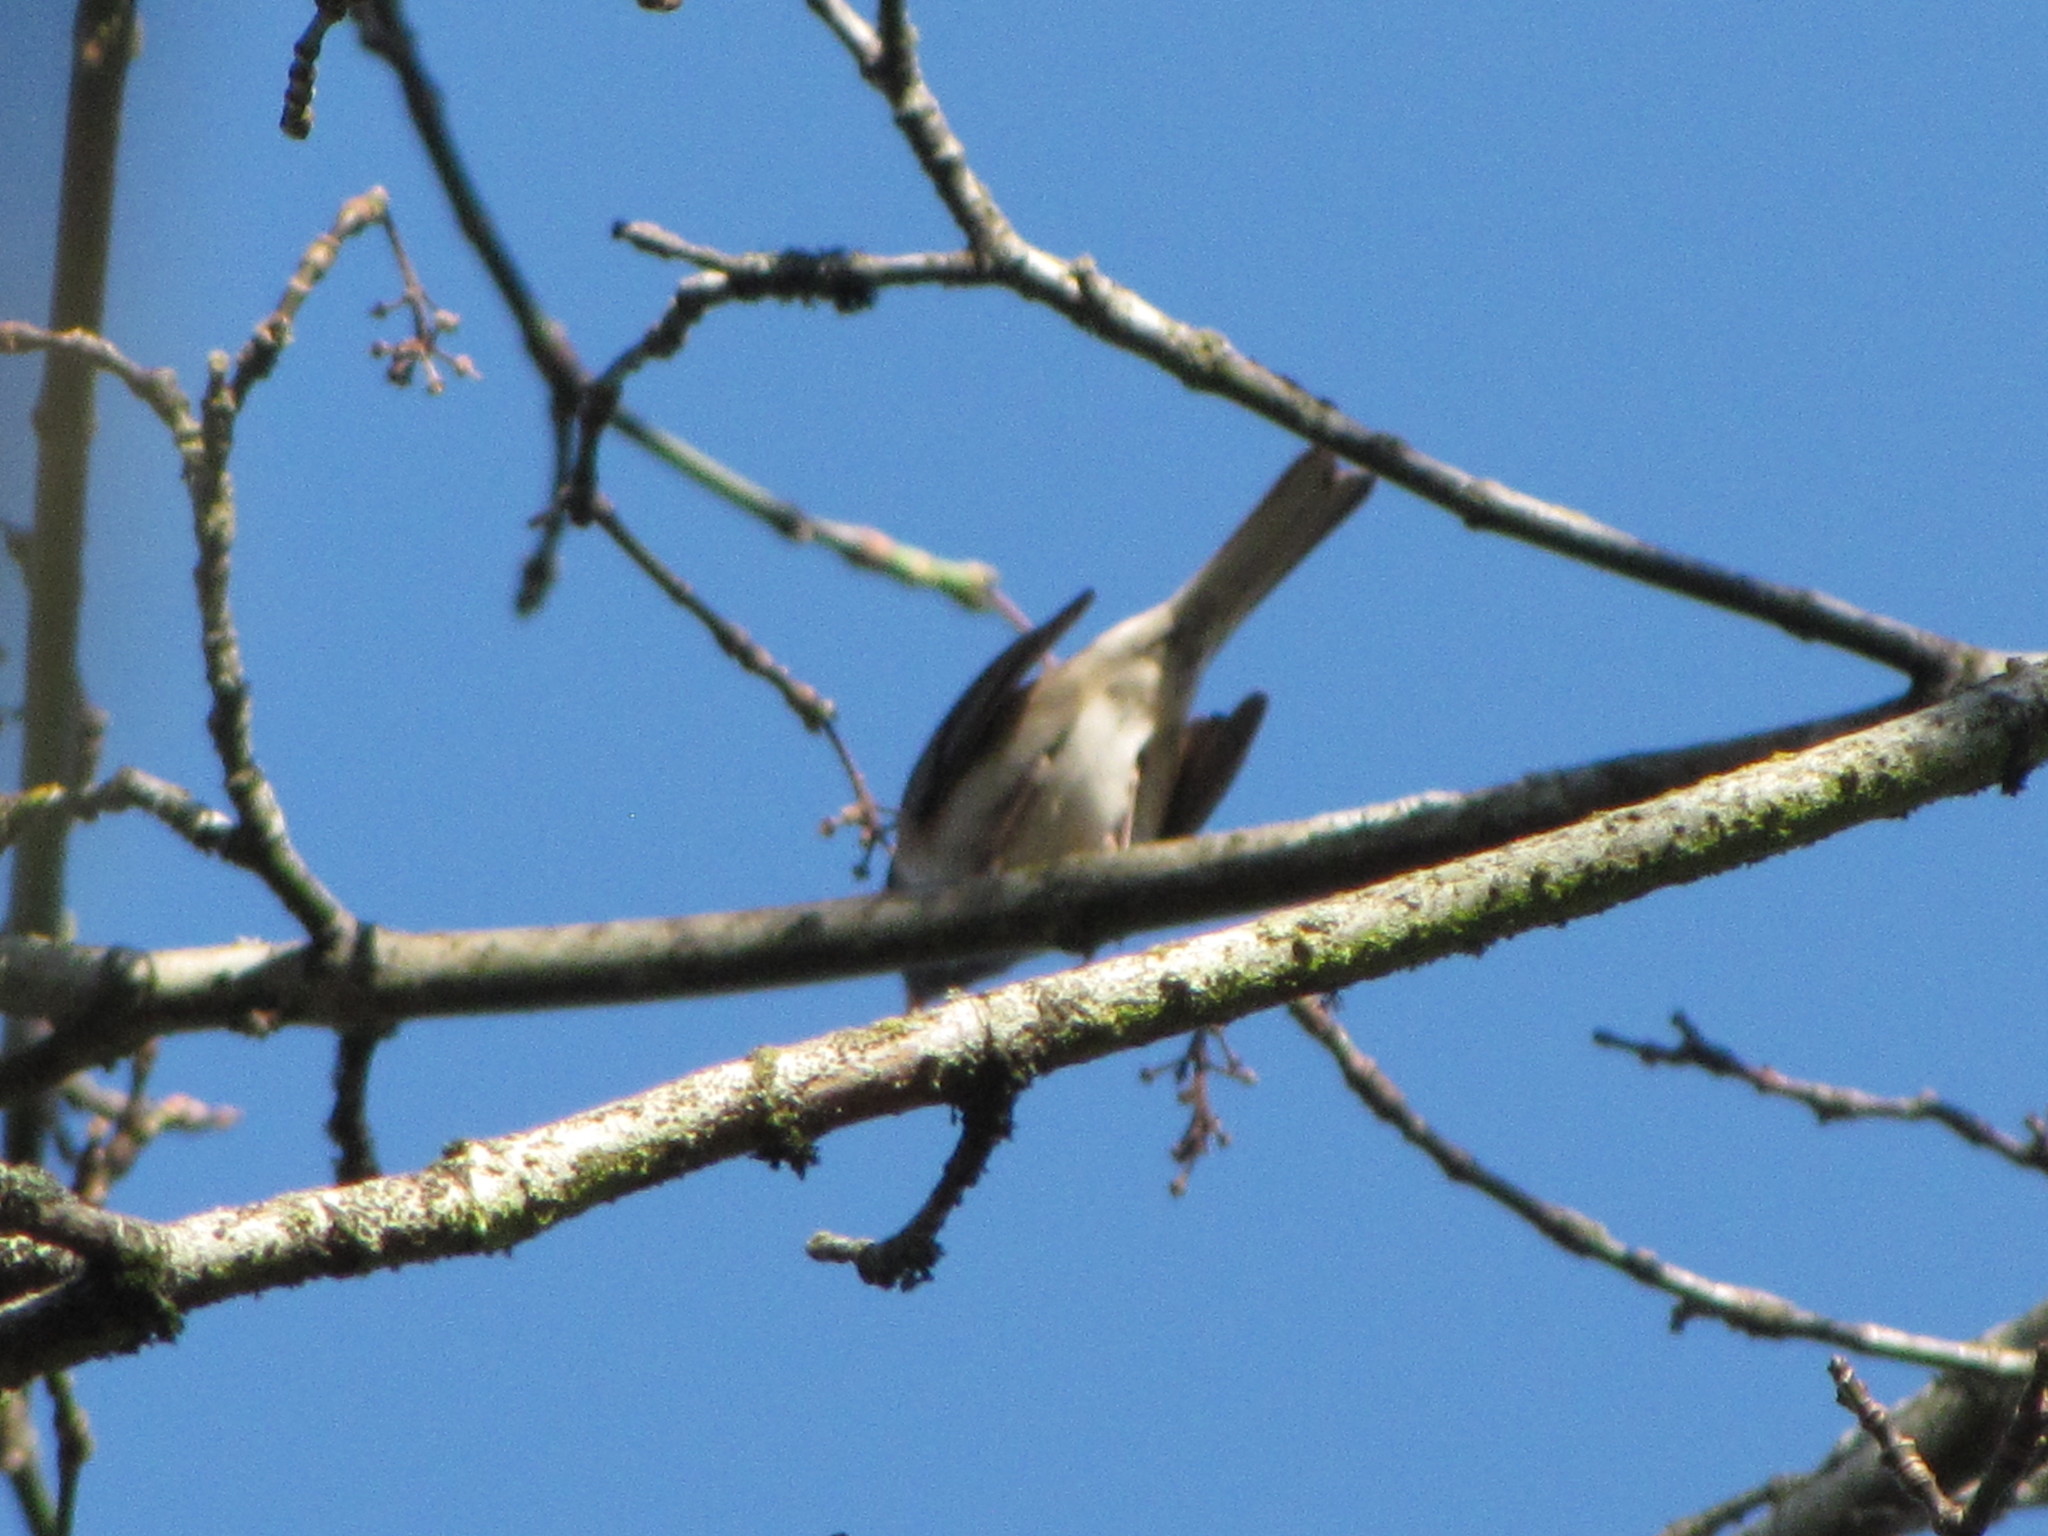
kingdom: Animalia
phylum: Chordata
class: Aves
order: Passeriformes
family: Passerellidae
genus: Junco
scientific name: Junco hyemalis
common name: Dark-eyed junco
